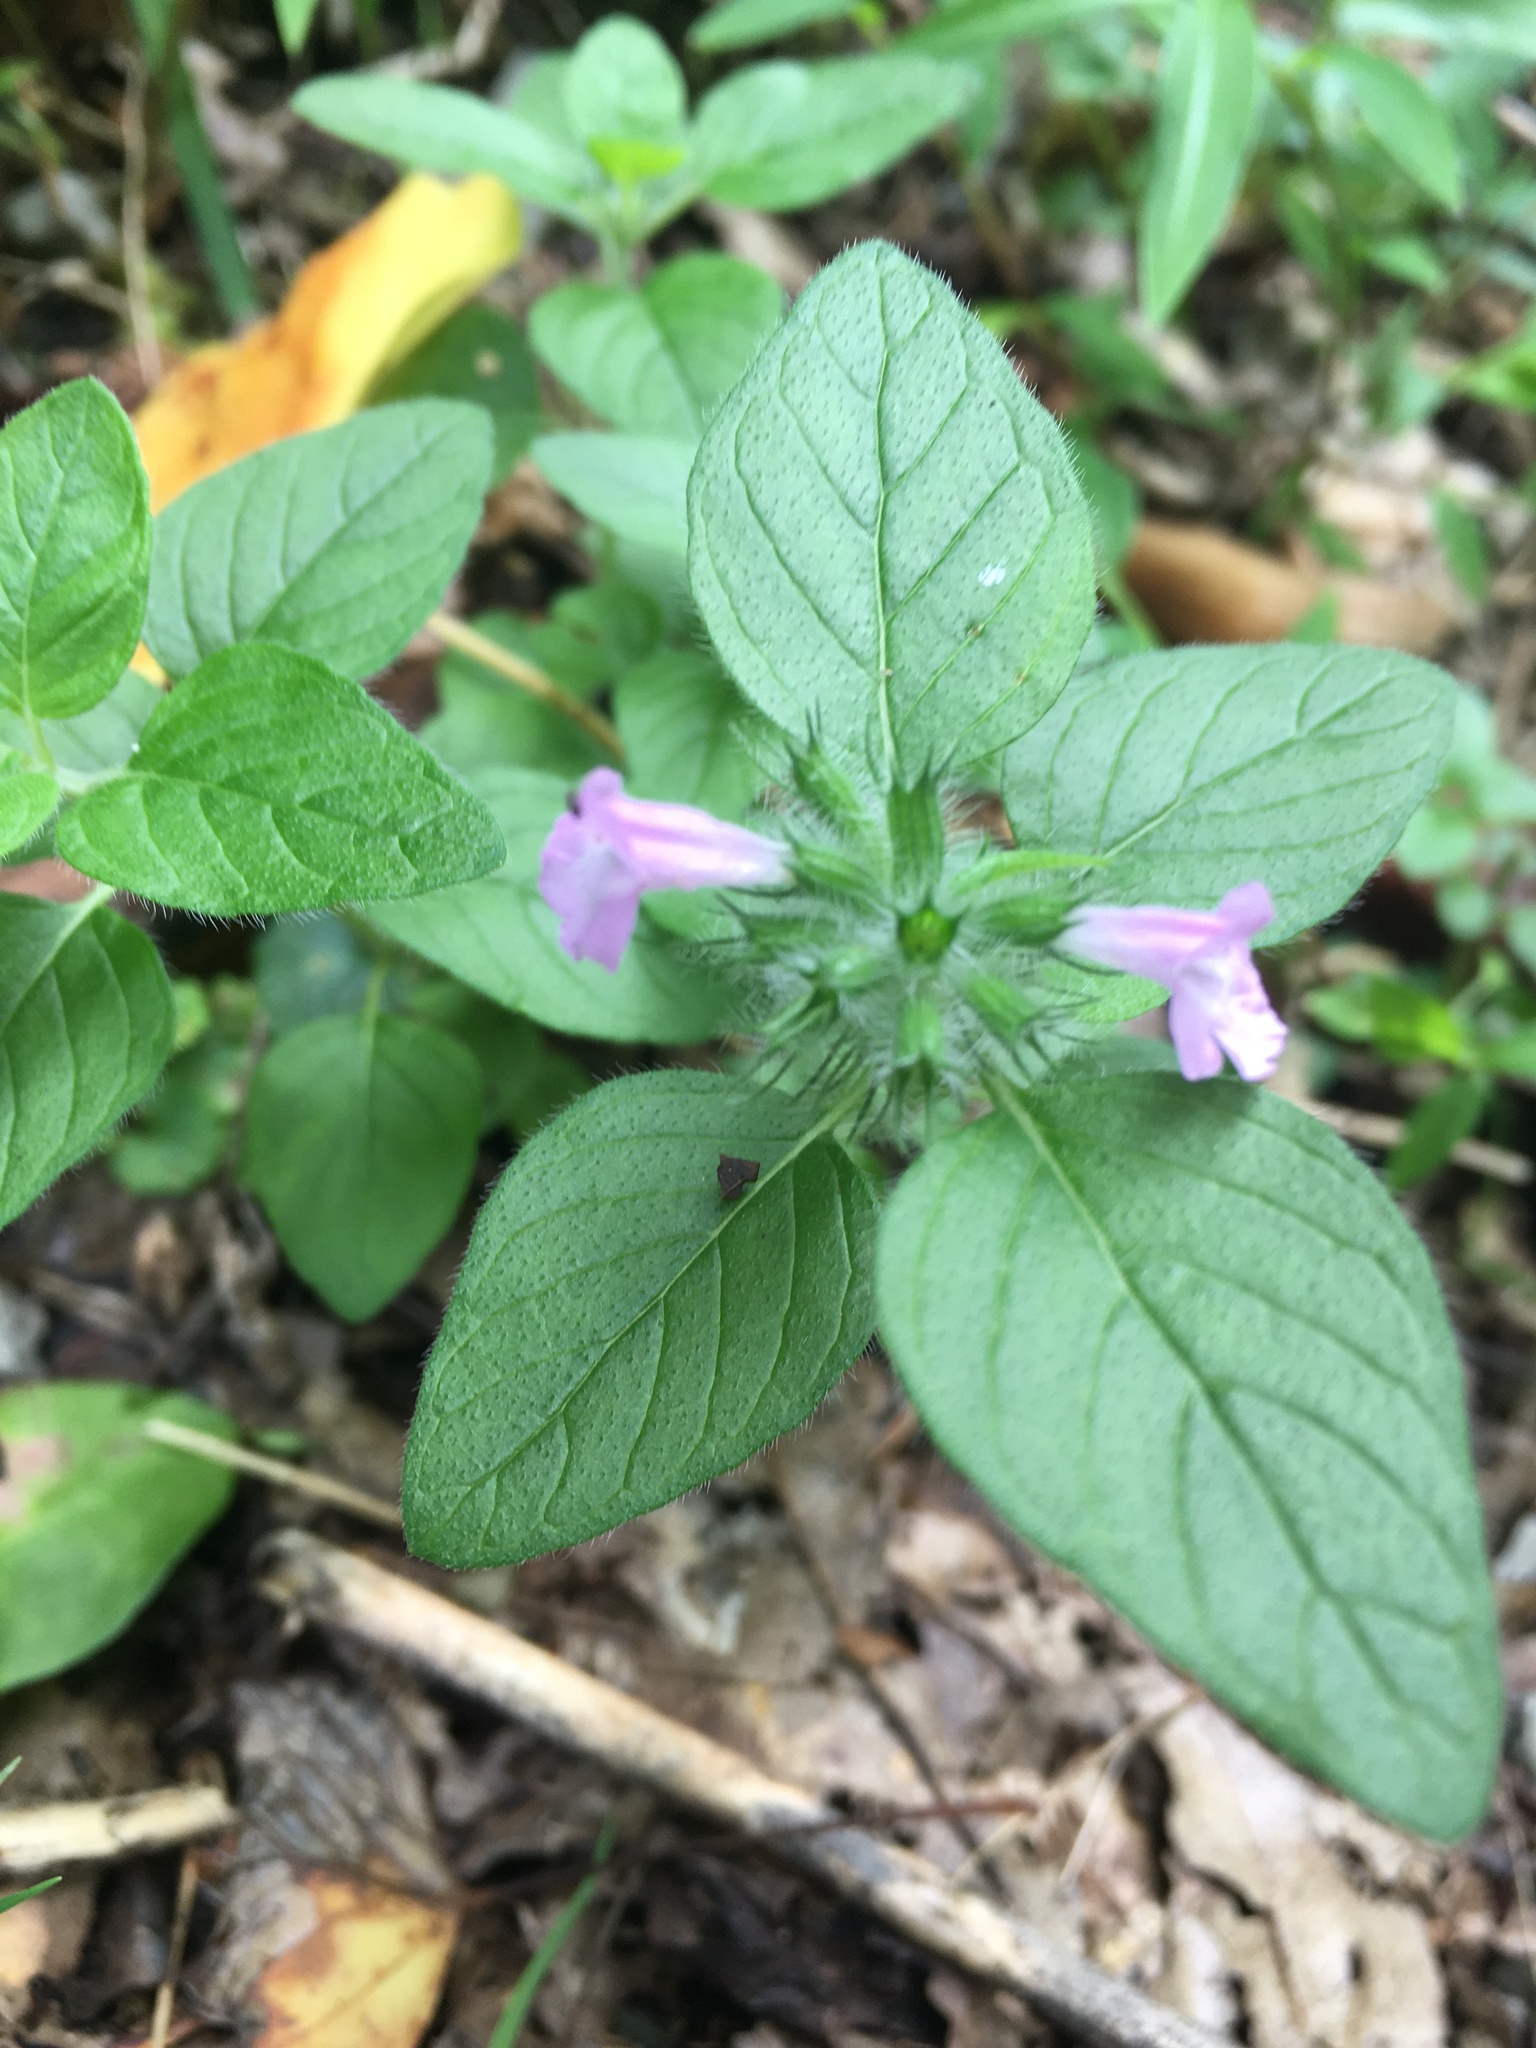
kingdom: Plantae
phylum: Tracheophyta
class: Magnoliopsida
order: Lamiales
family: Lamiaceae
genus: Clinopodium
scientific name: Clinopodium vulgare
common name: Wild basil
